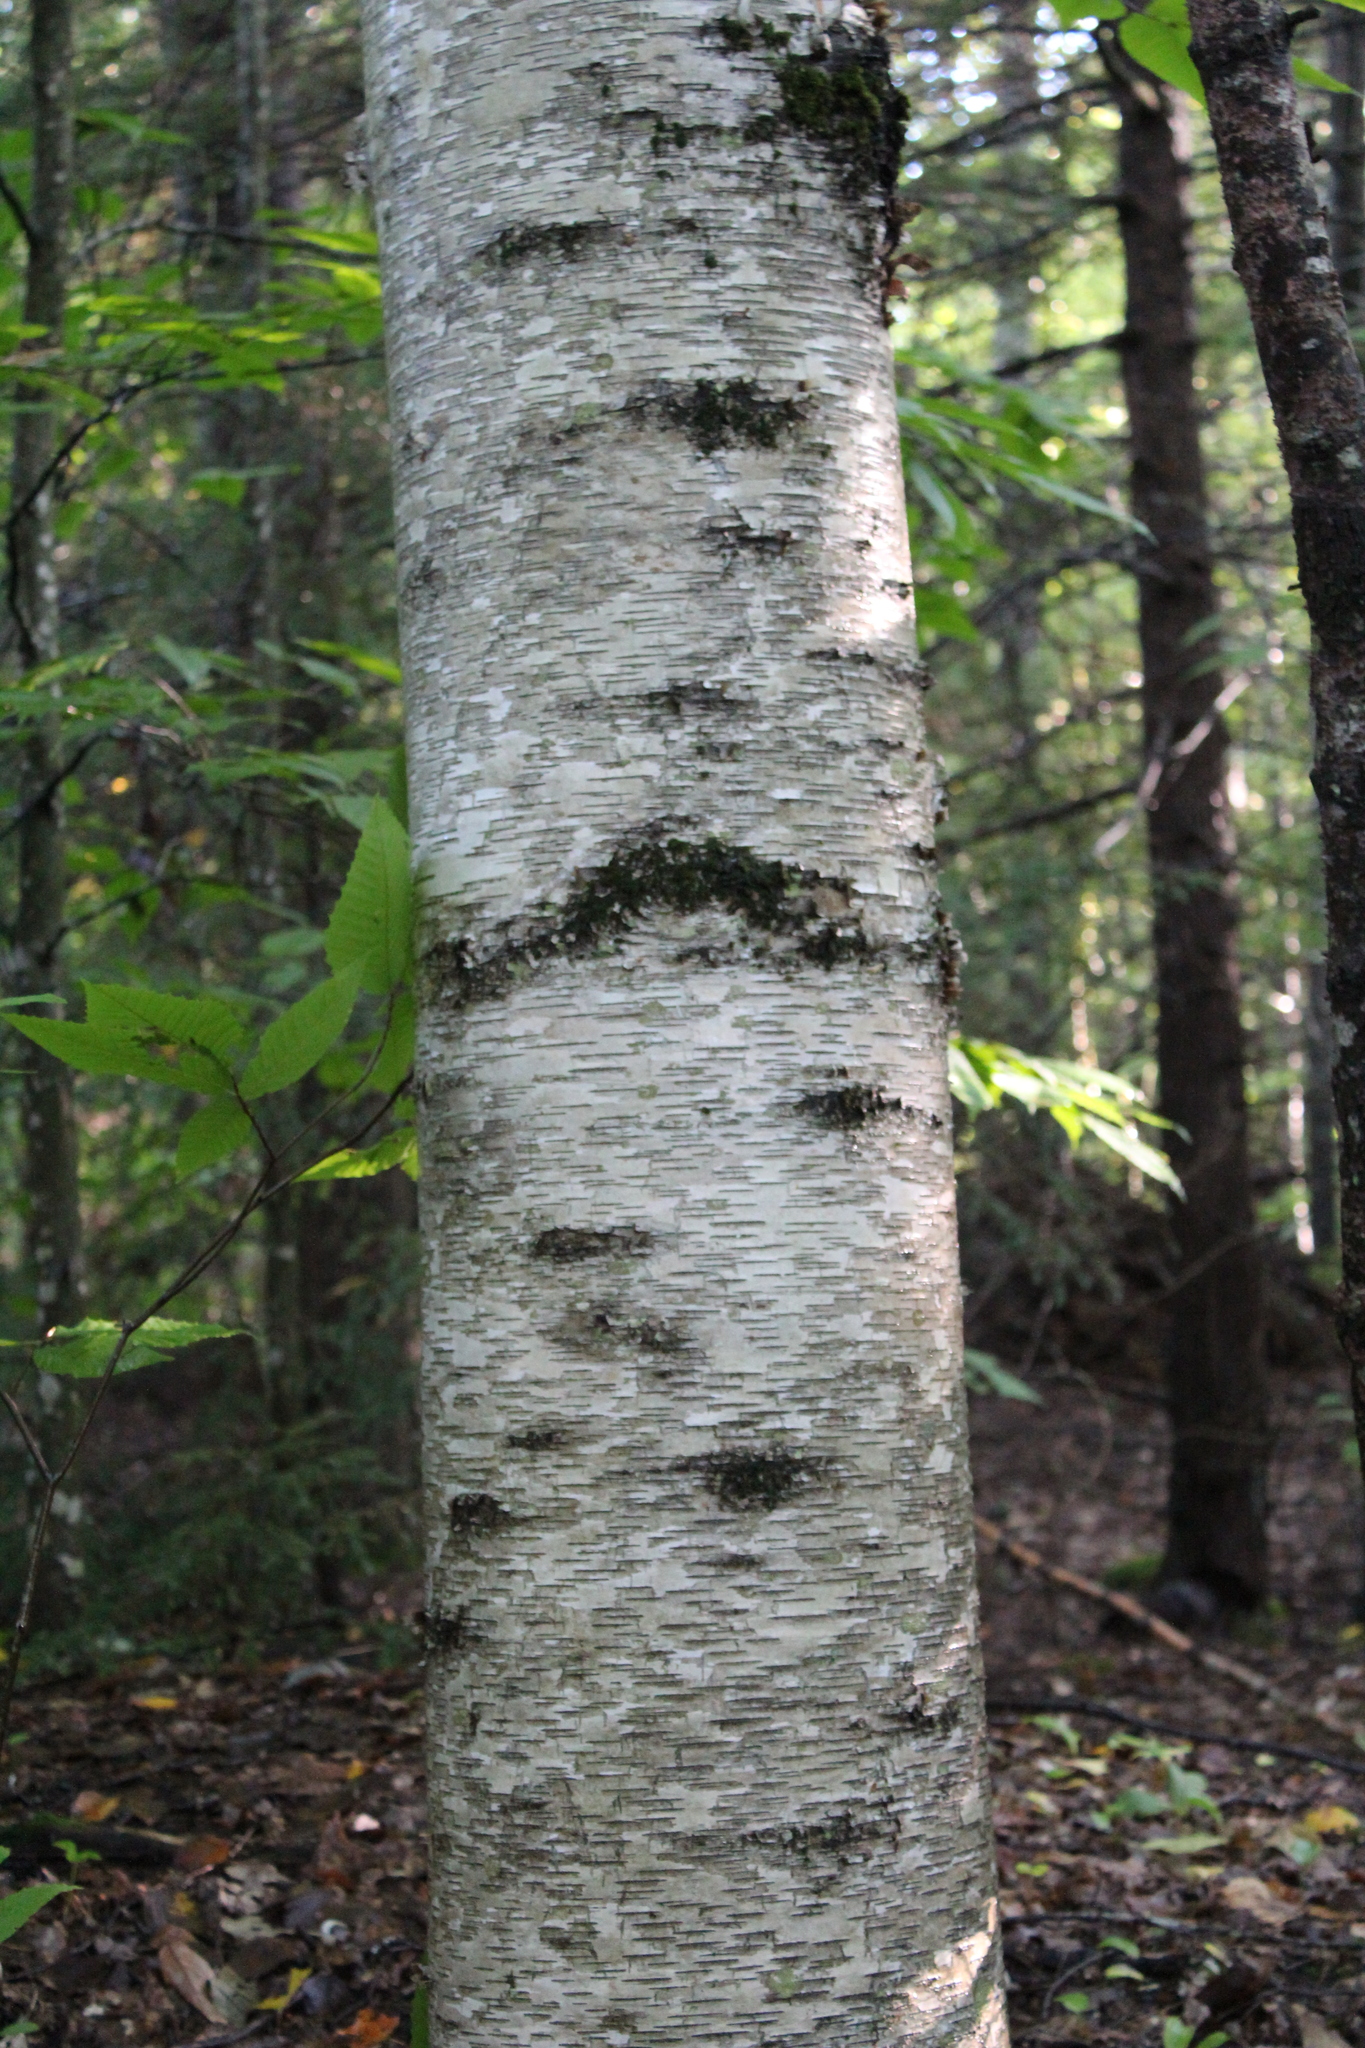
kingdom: Plantae
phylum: Tracheophyta
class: Magnoliopsida
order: Fagales
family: Betulaceae
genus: Betula
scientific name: Betula papyrifera
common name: Paper birch
